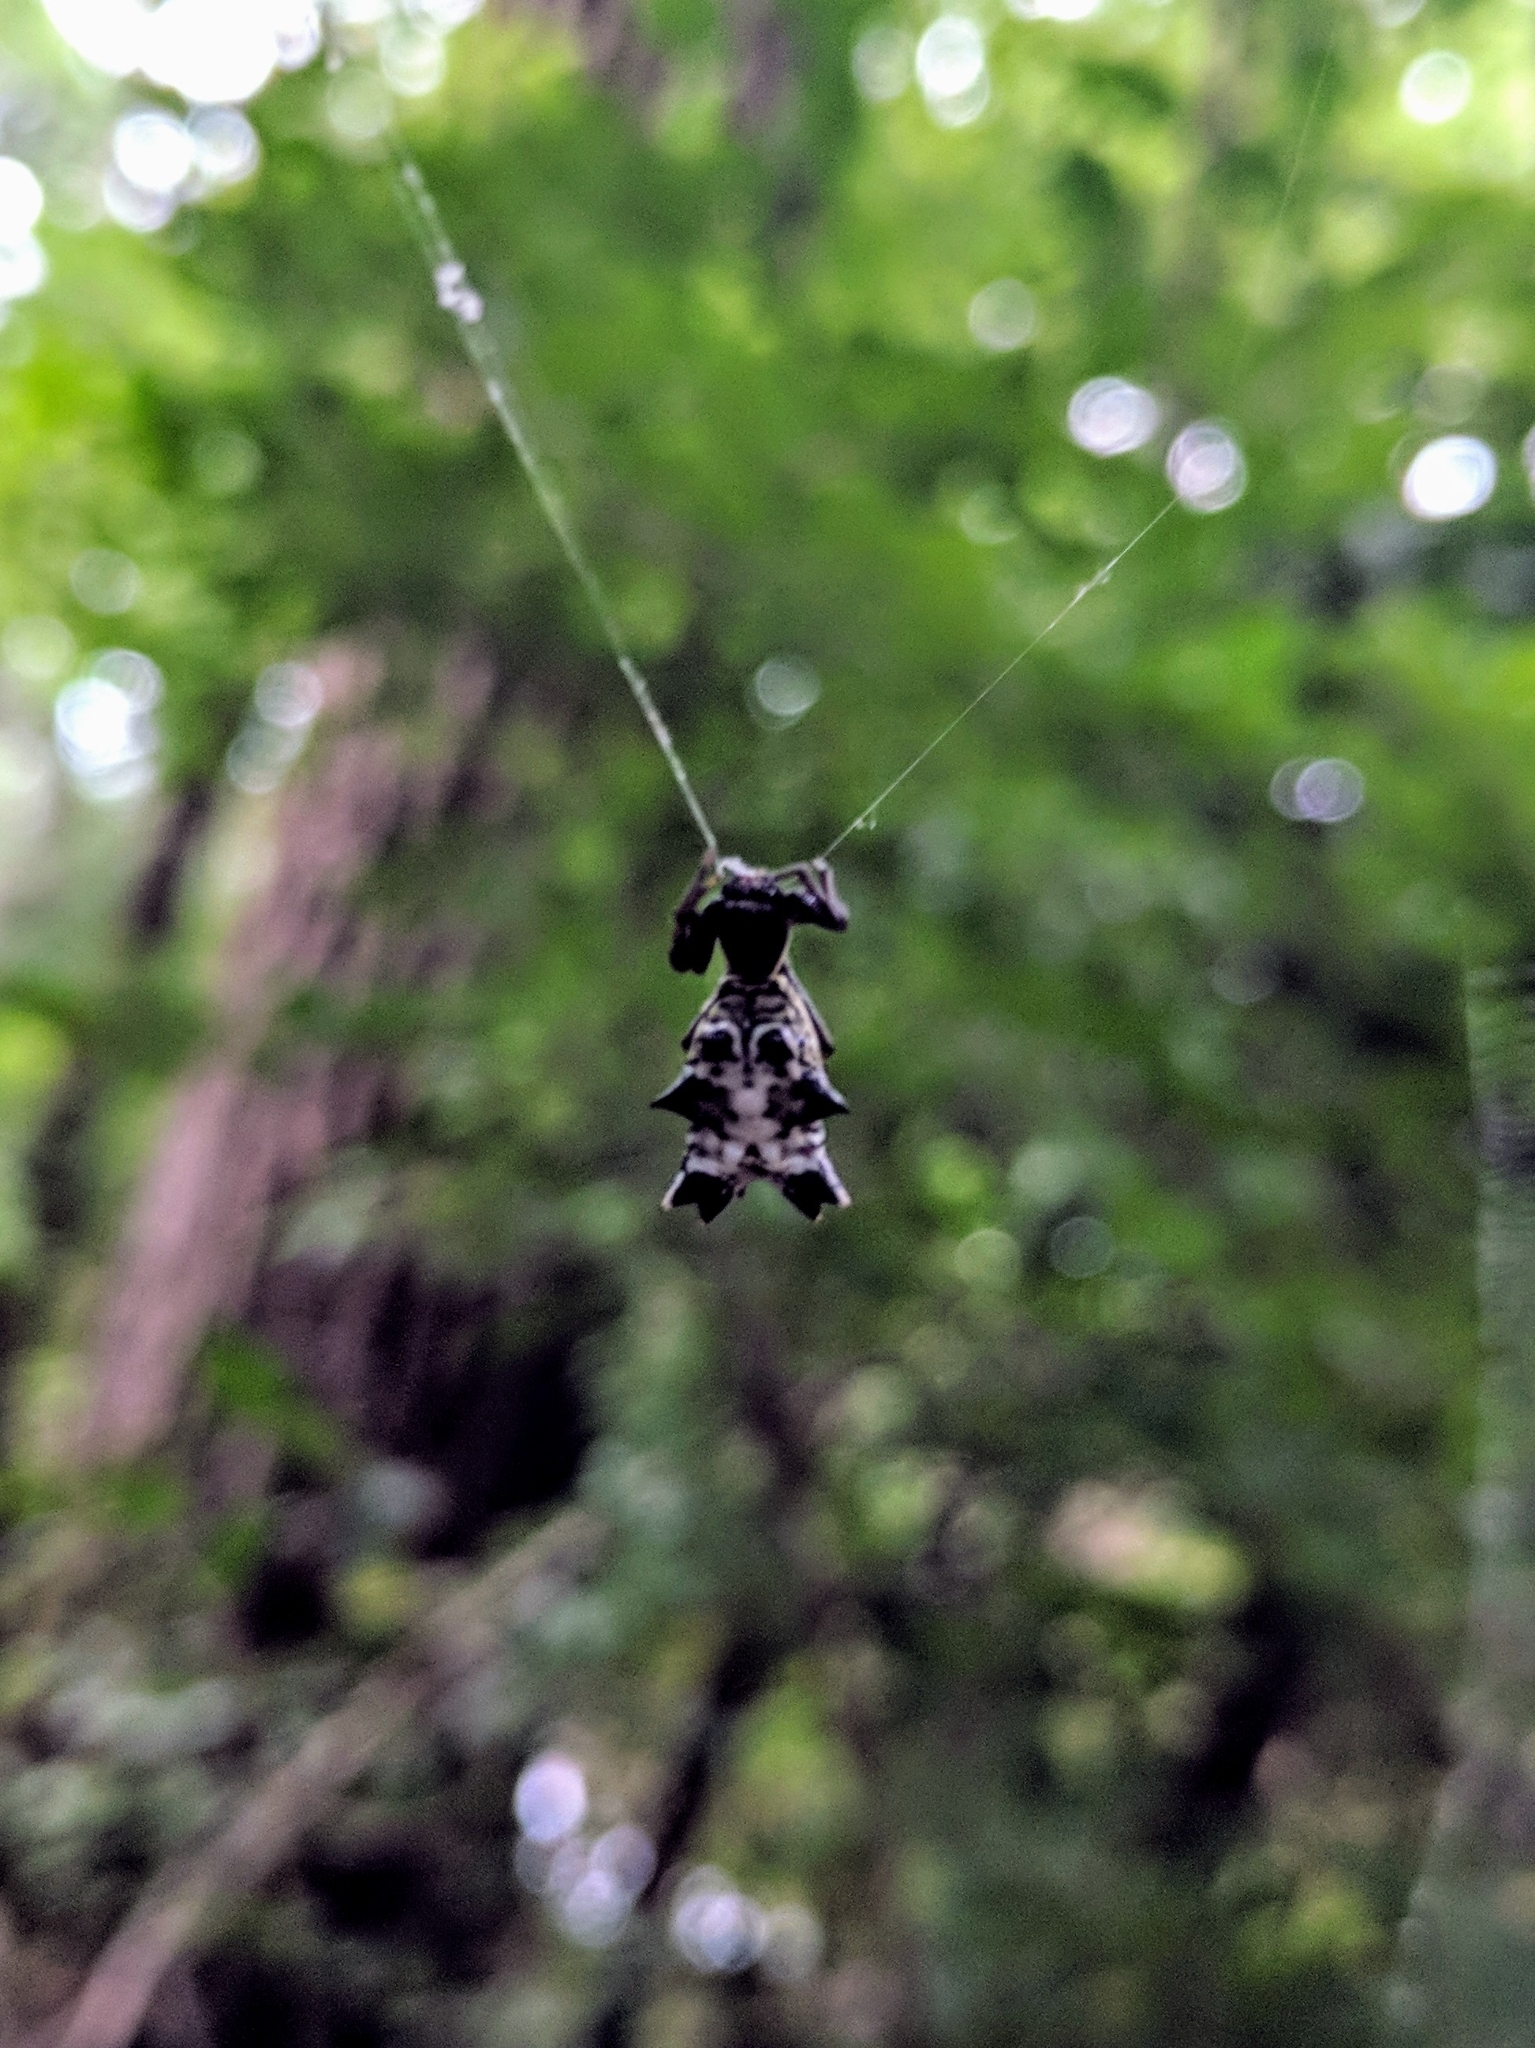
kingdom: Animalia
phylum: Arthropoda
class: Arachnida
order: Araneae
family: Araneidae
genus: Micrathena
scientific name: Micrathena gracilis
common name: Orb weavers
